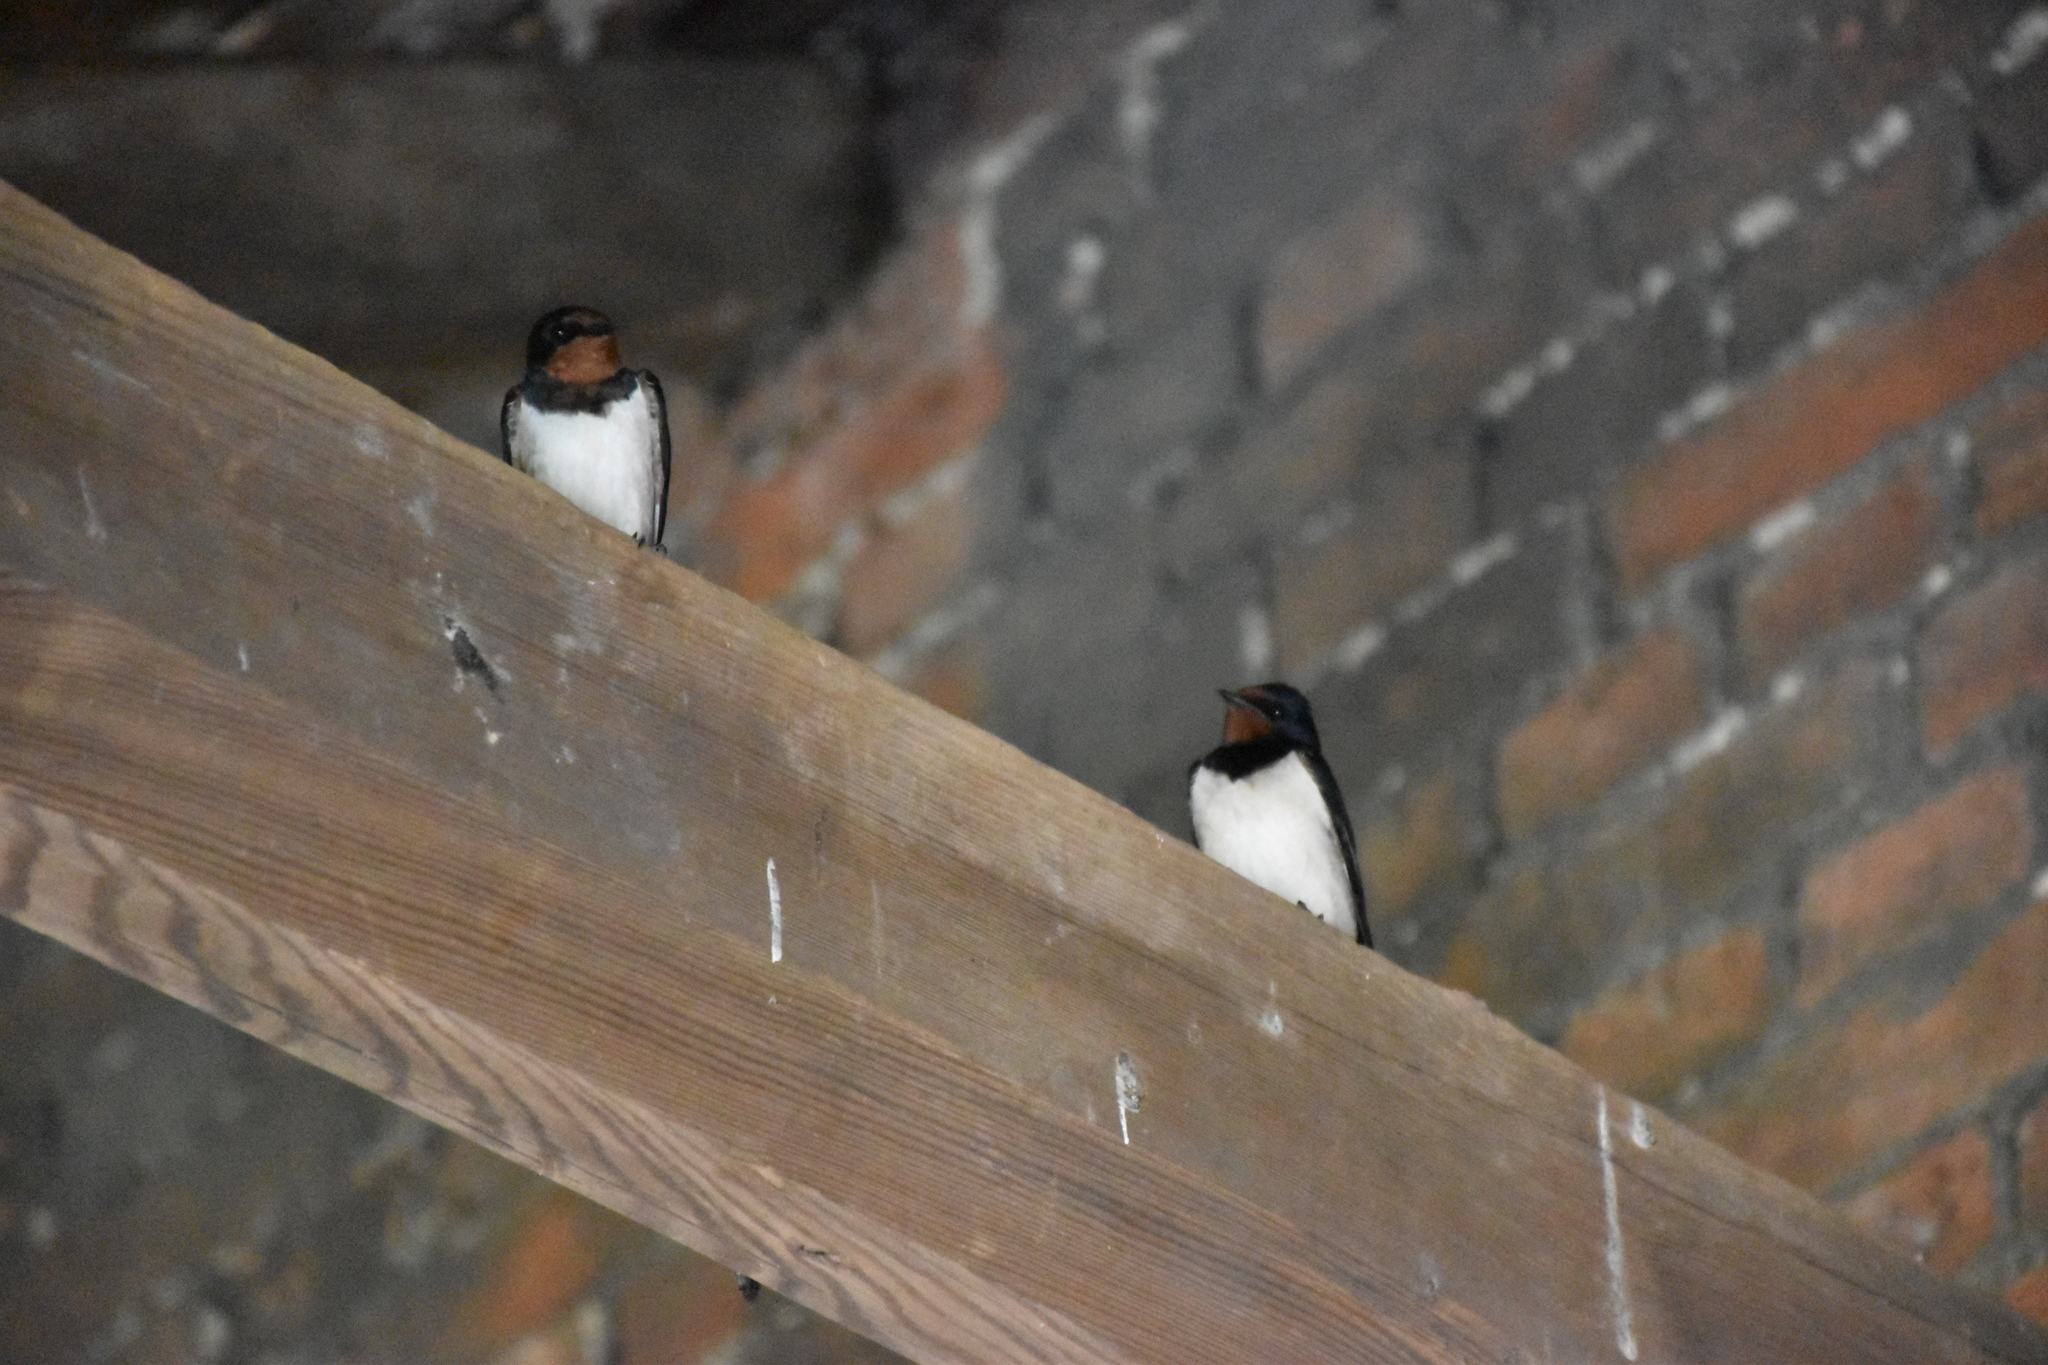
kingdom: Animalia
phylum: Chordata
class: Aves
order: Passeriformes
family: Hirundinidae
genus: Hirundo
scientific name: Hirundo rustica
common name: Barn swallow
